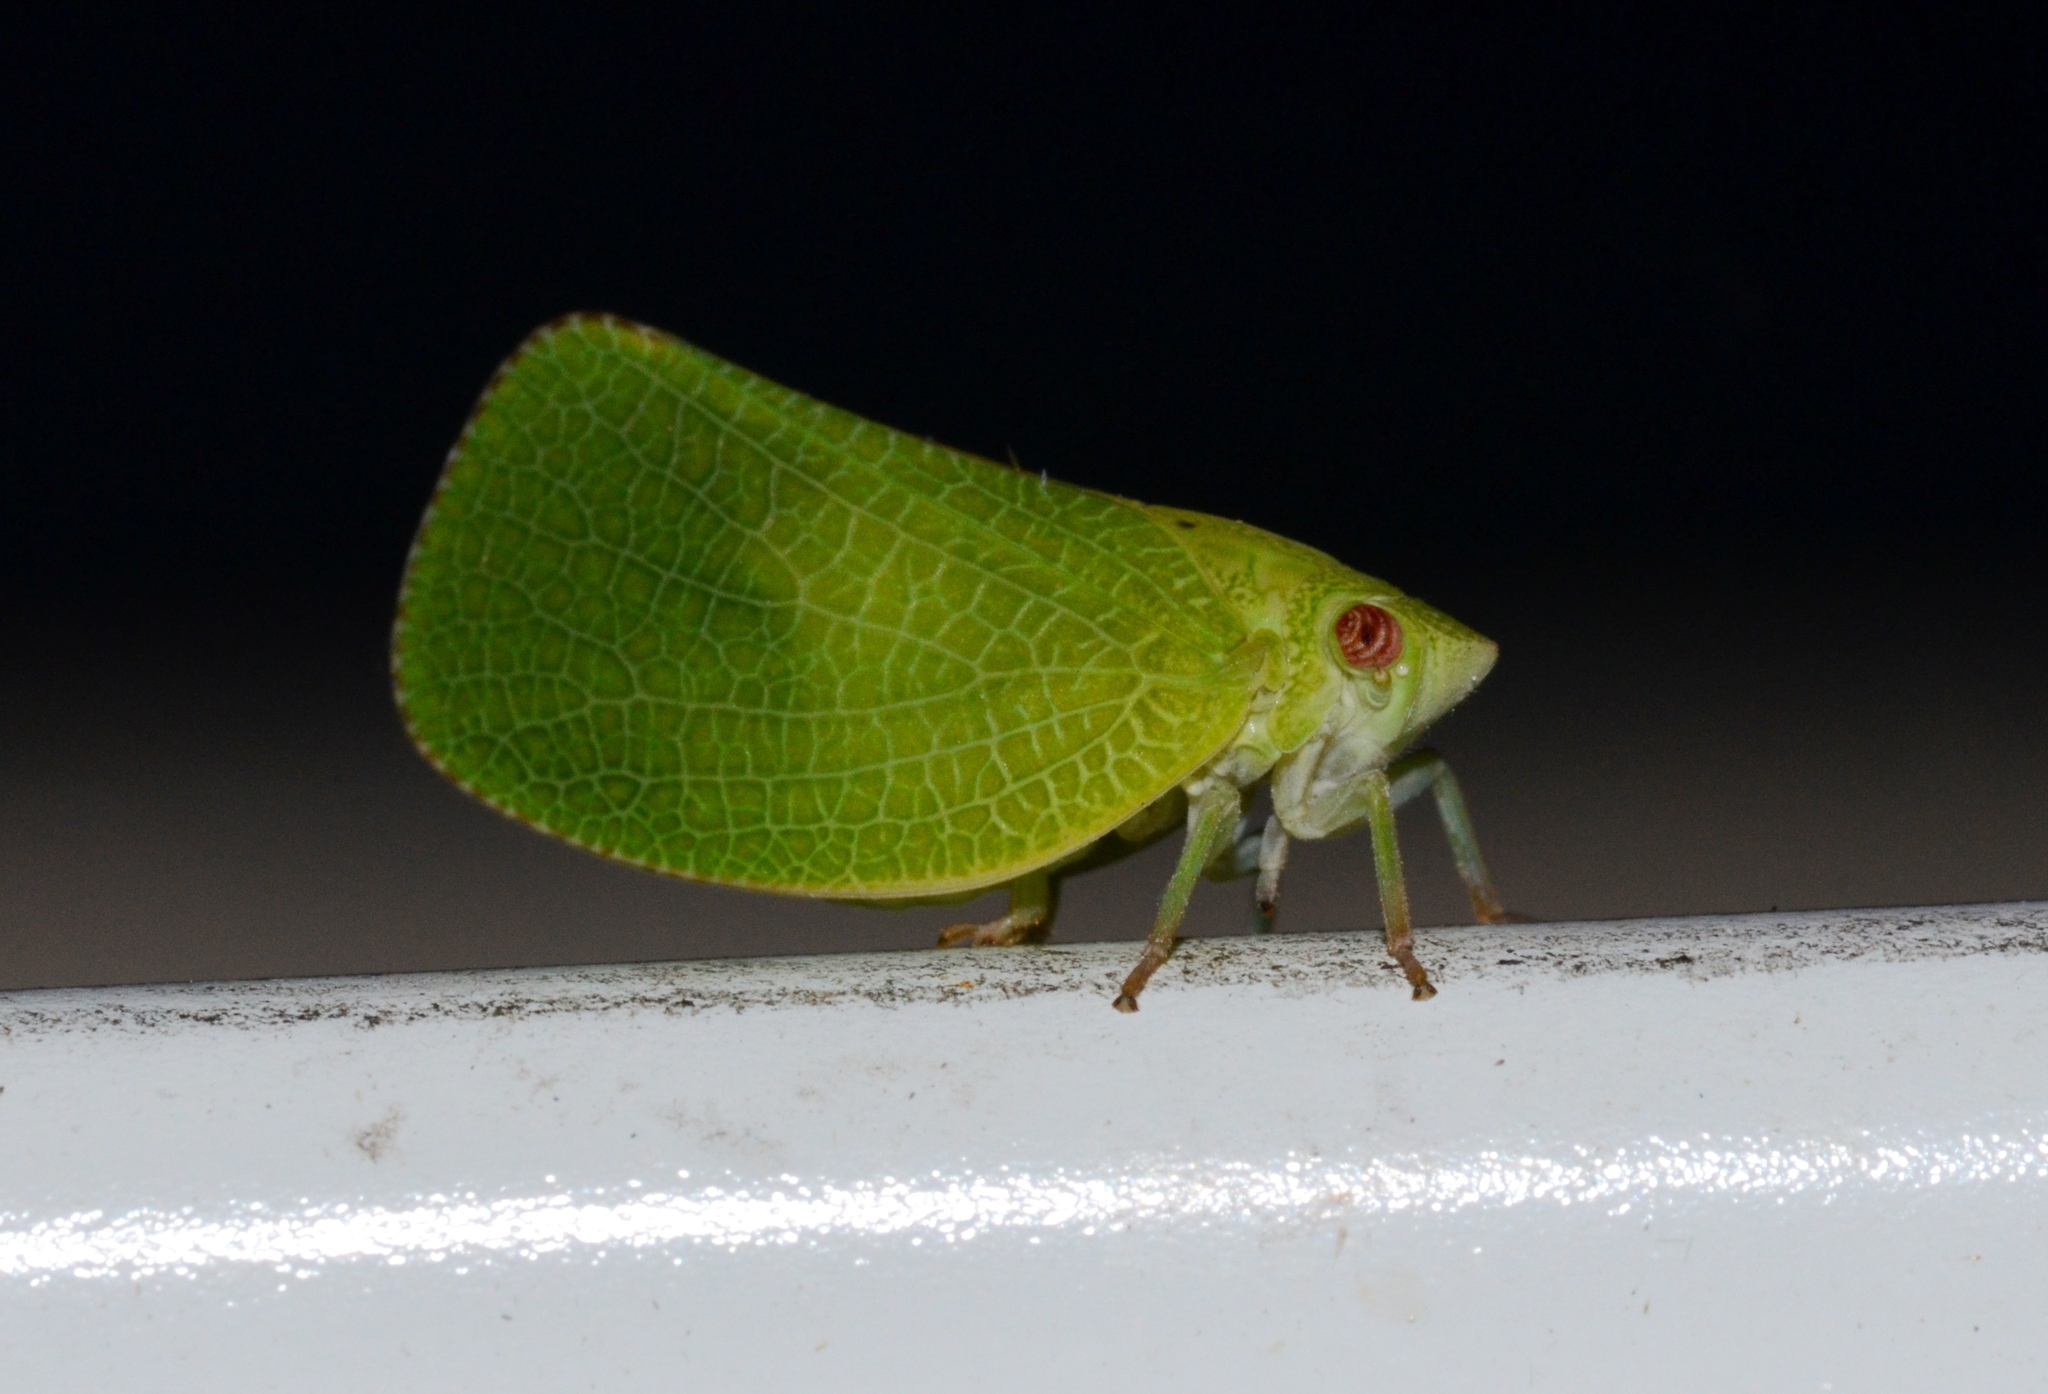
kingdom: Animalia
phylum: Arthropoda
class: Insecta
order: Hemiptera
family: Acanaloniidae
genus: Acanalonia
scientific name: Acanalonia conica
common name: Green cone-headed planthopper
